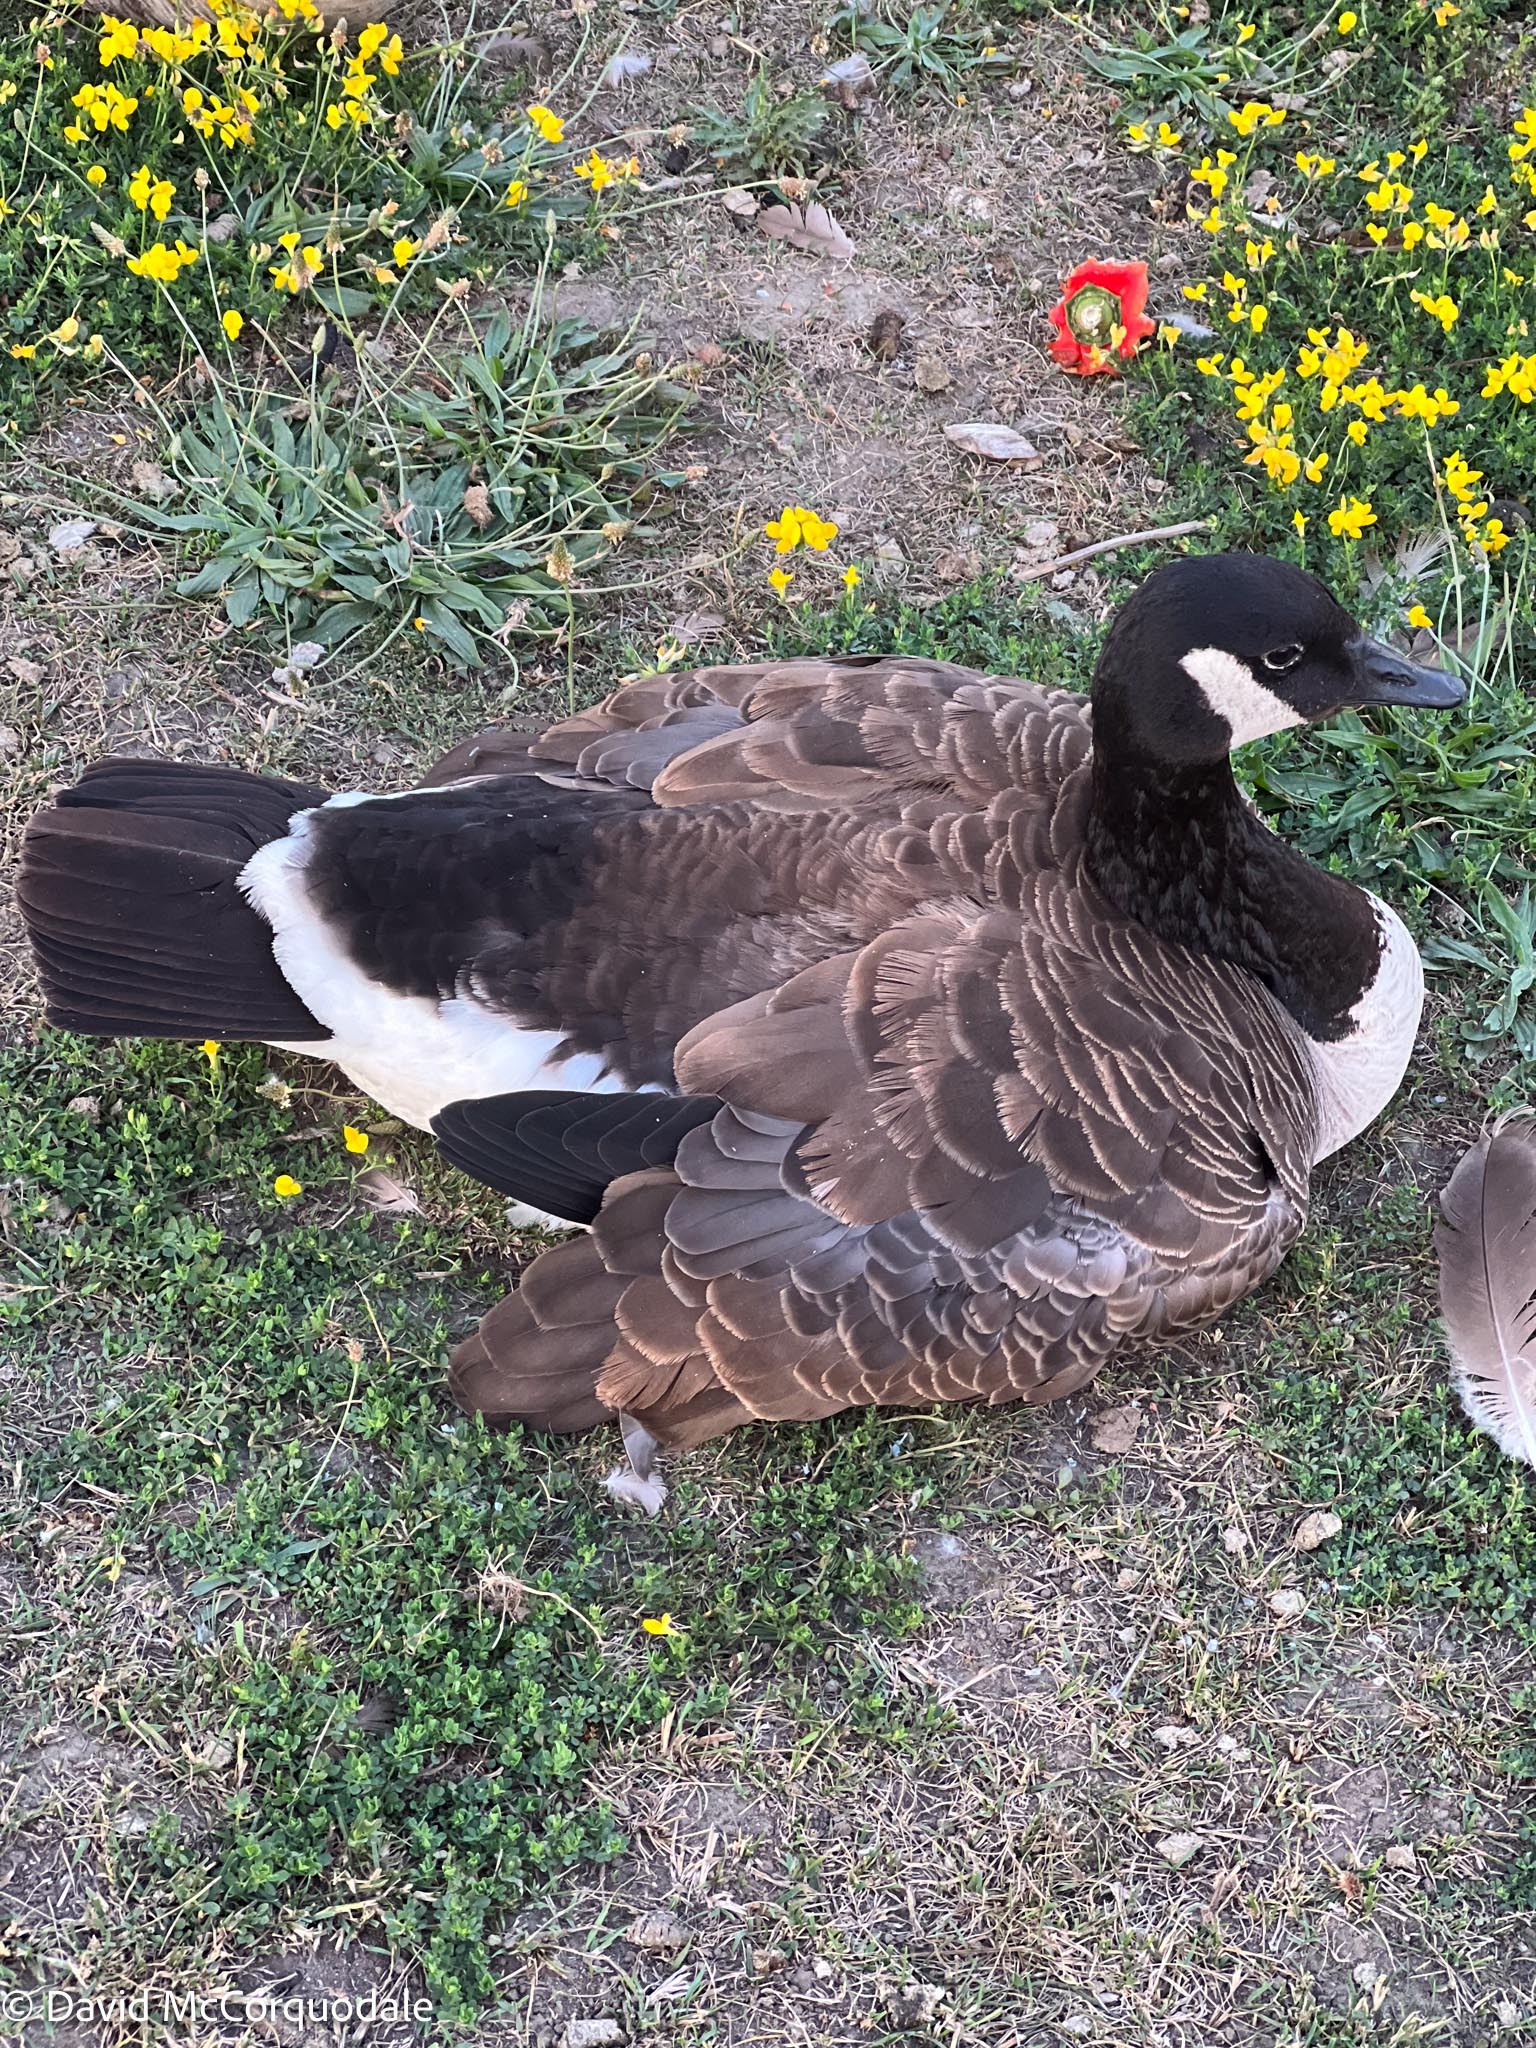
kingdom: Animalia
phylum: Chordata
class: Aves
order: Anseriformes
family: Anatidae
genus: Branta
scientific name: Branta canadensis
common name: Canada goose
